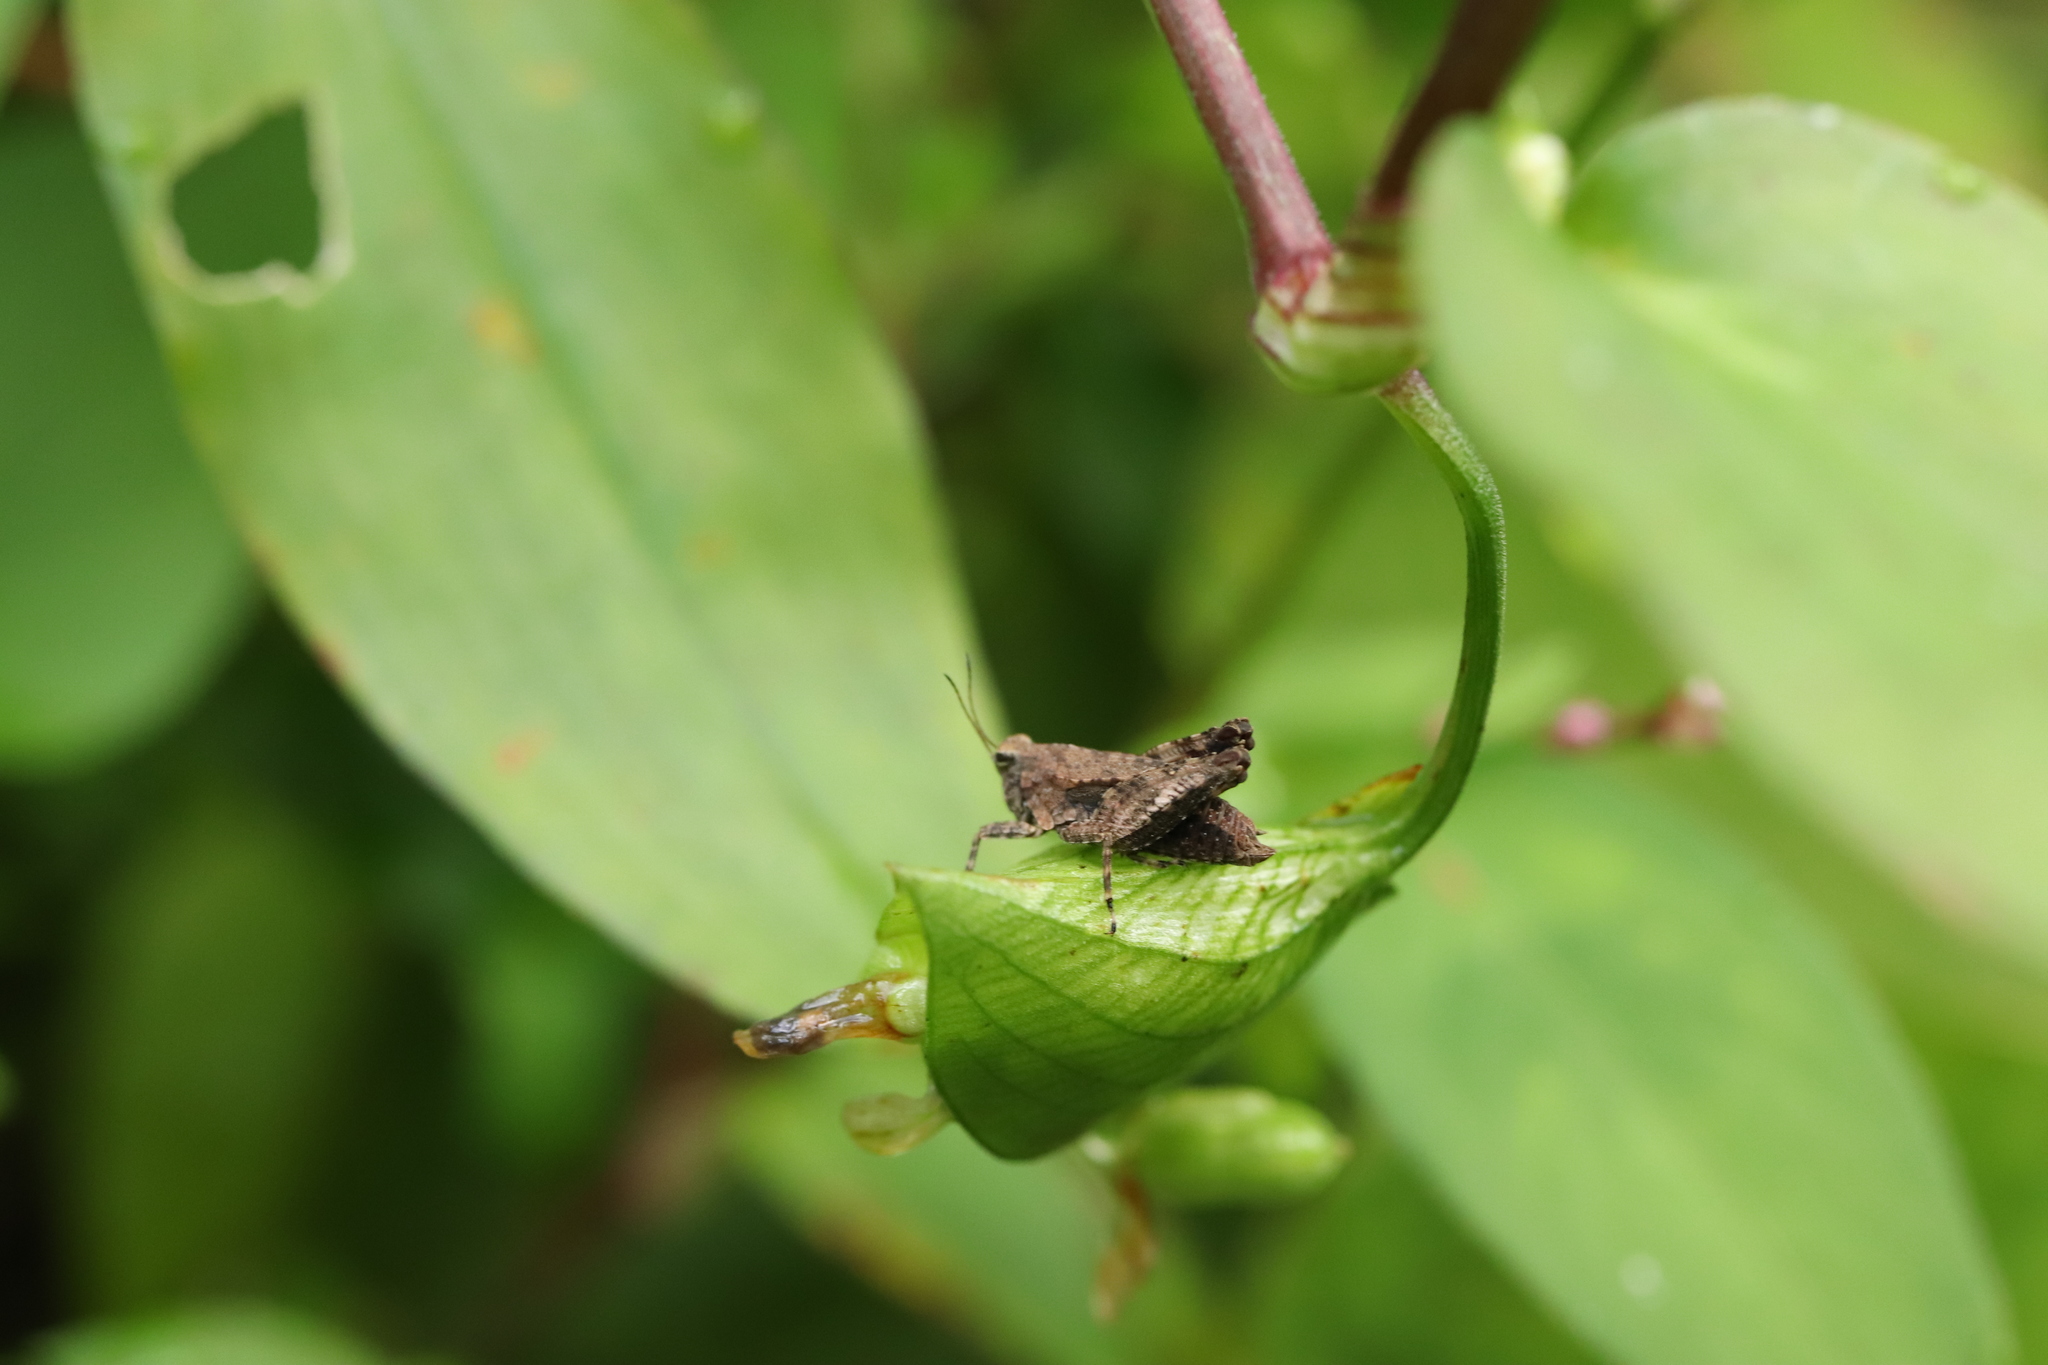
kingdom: Animalia
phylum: Arthropoda
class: Insecta
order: Orthoptera
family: Tetrigidae
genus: Tetrix
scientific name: Tetrix japonica
